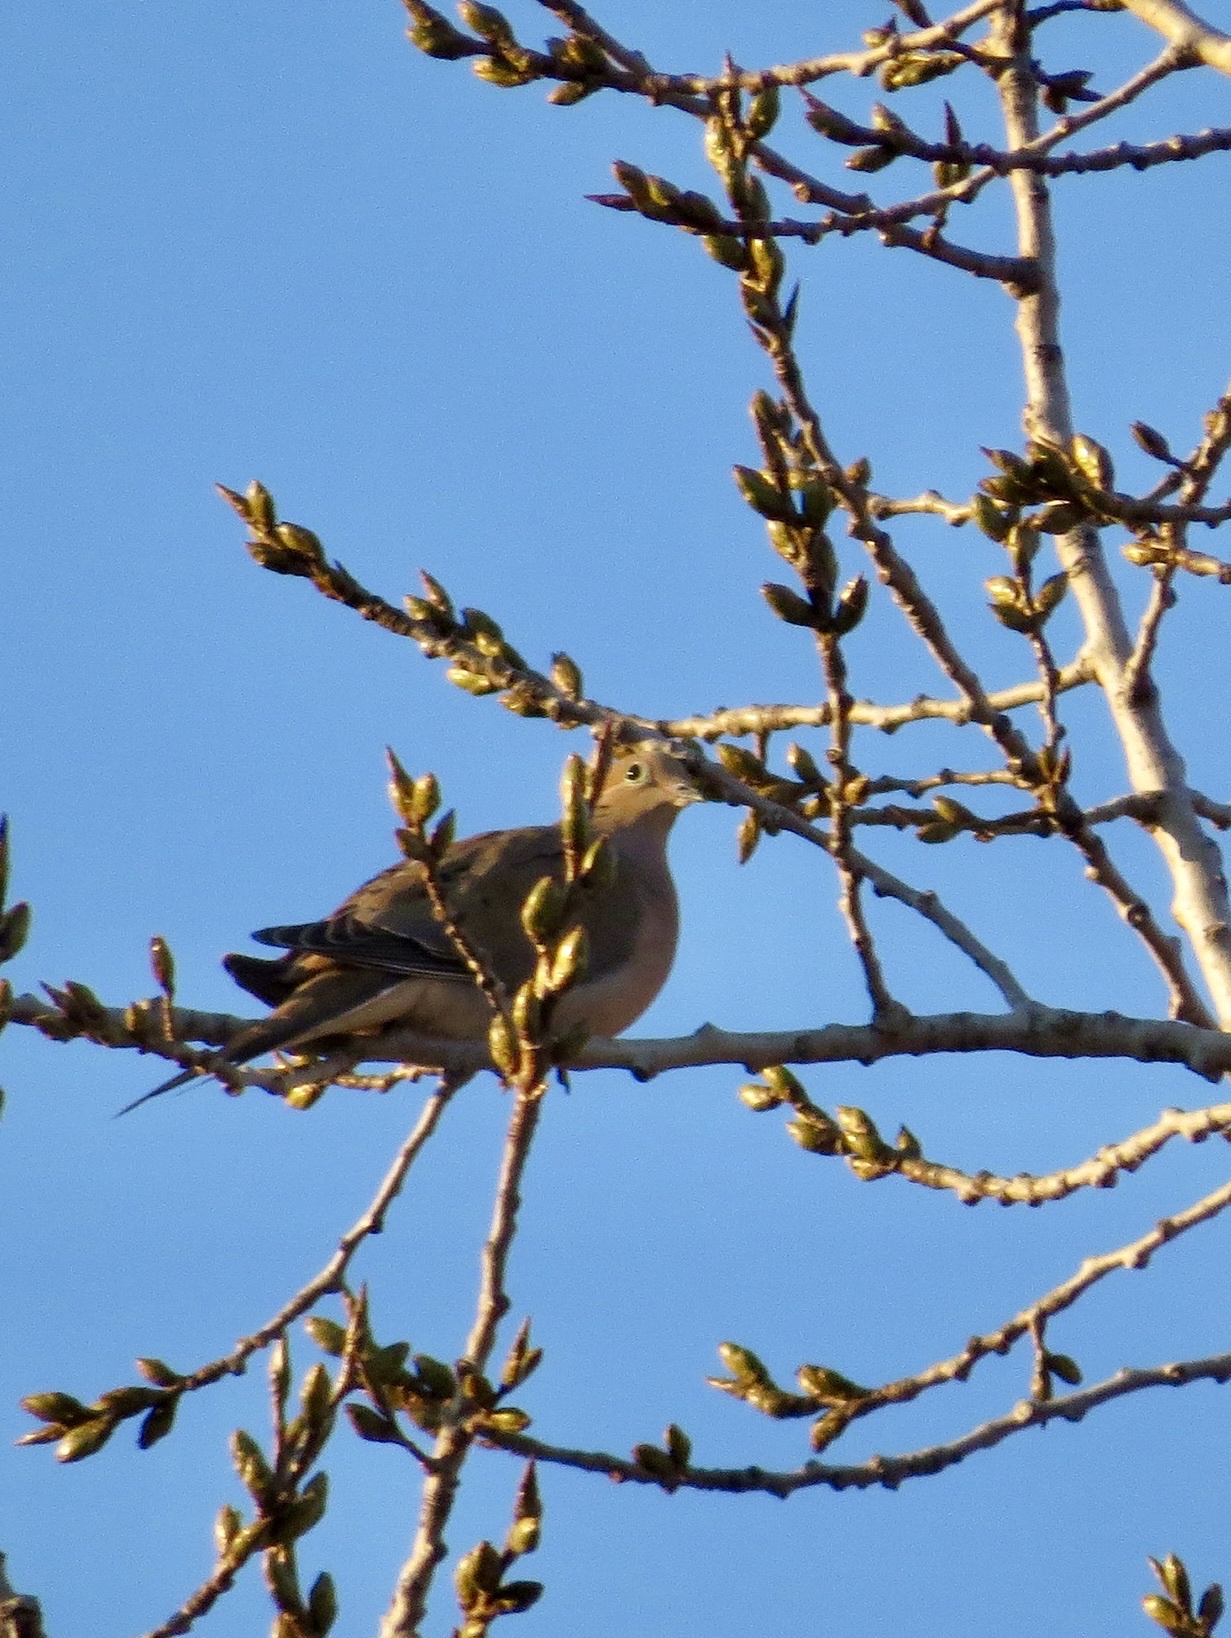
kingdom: Animalia
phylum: Chordata
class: Aves
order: Columbiformes
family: Columbidae
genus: Zenaida
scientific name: Zenaida macroura
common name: Mourning dove
